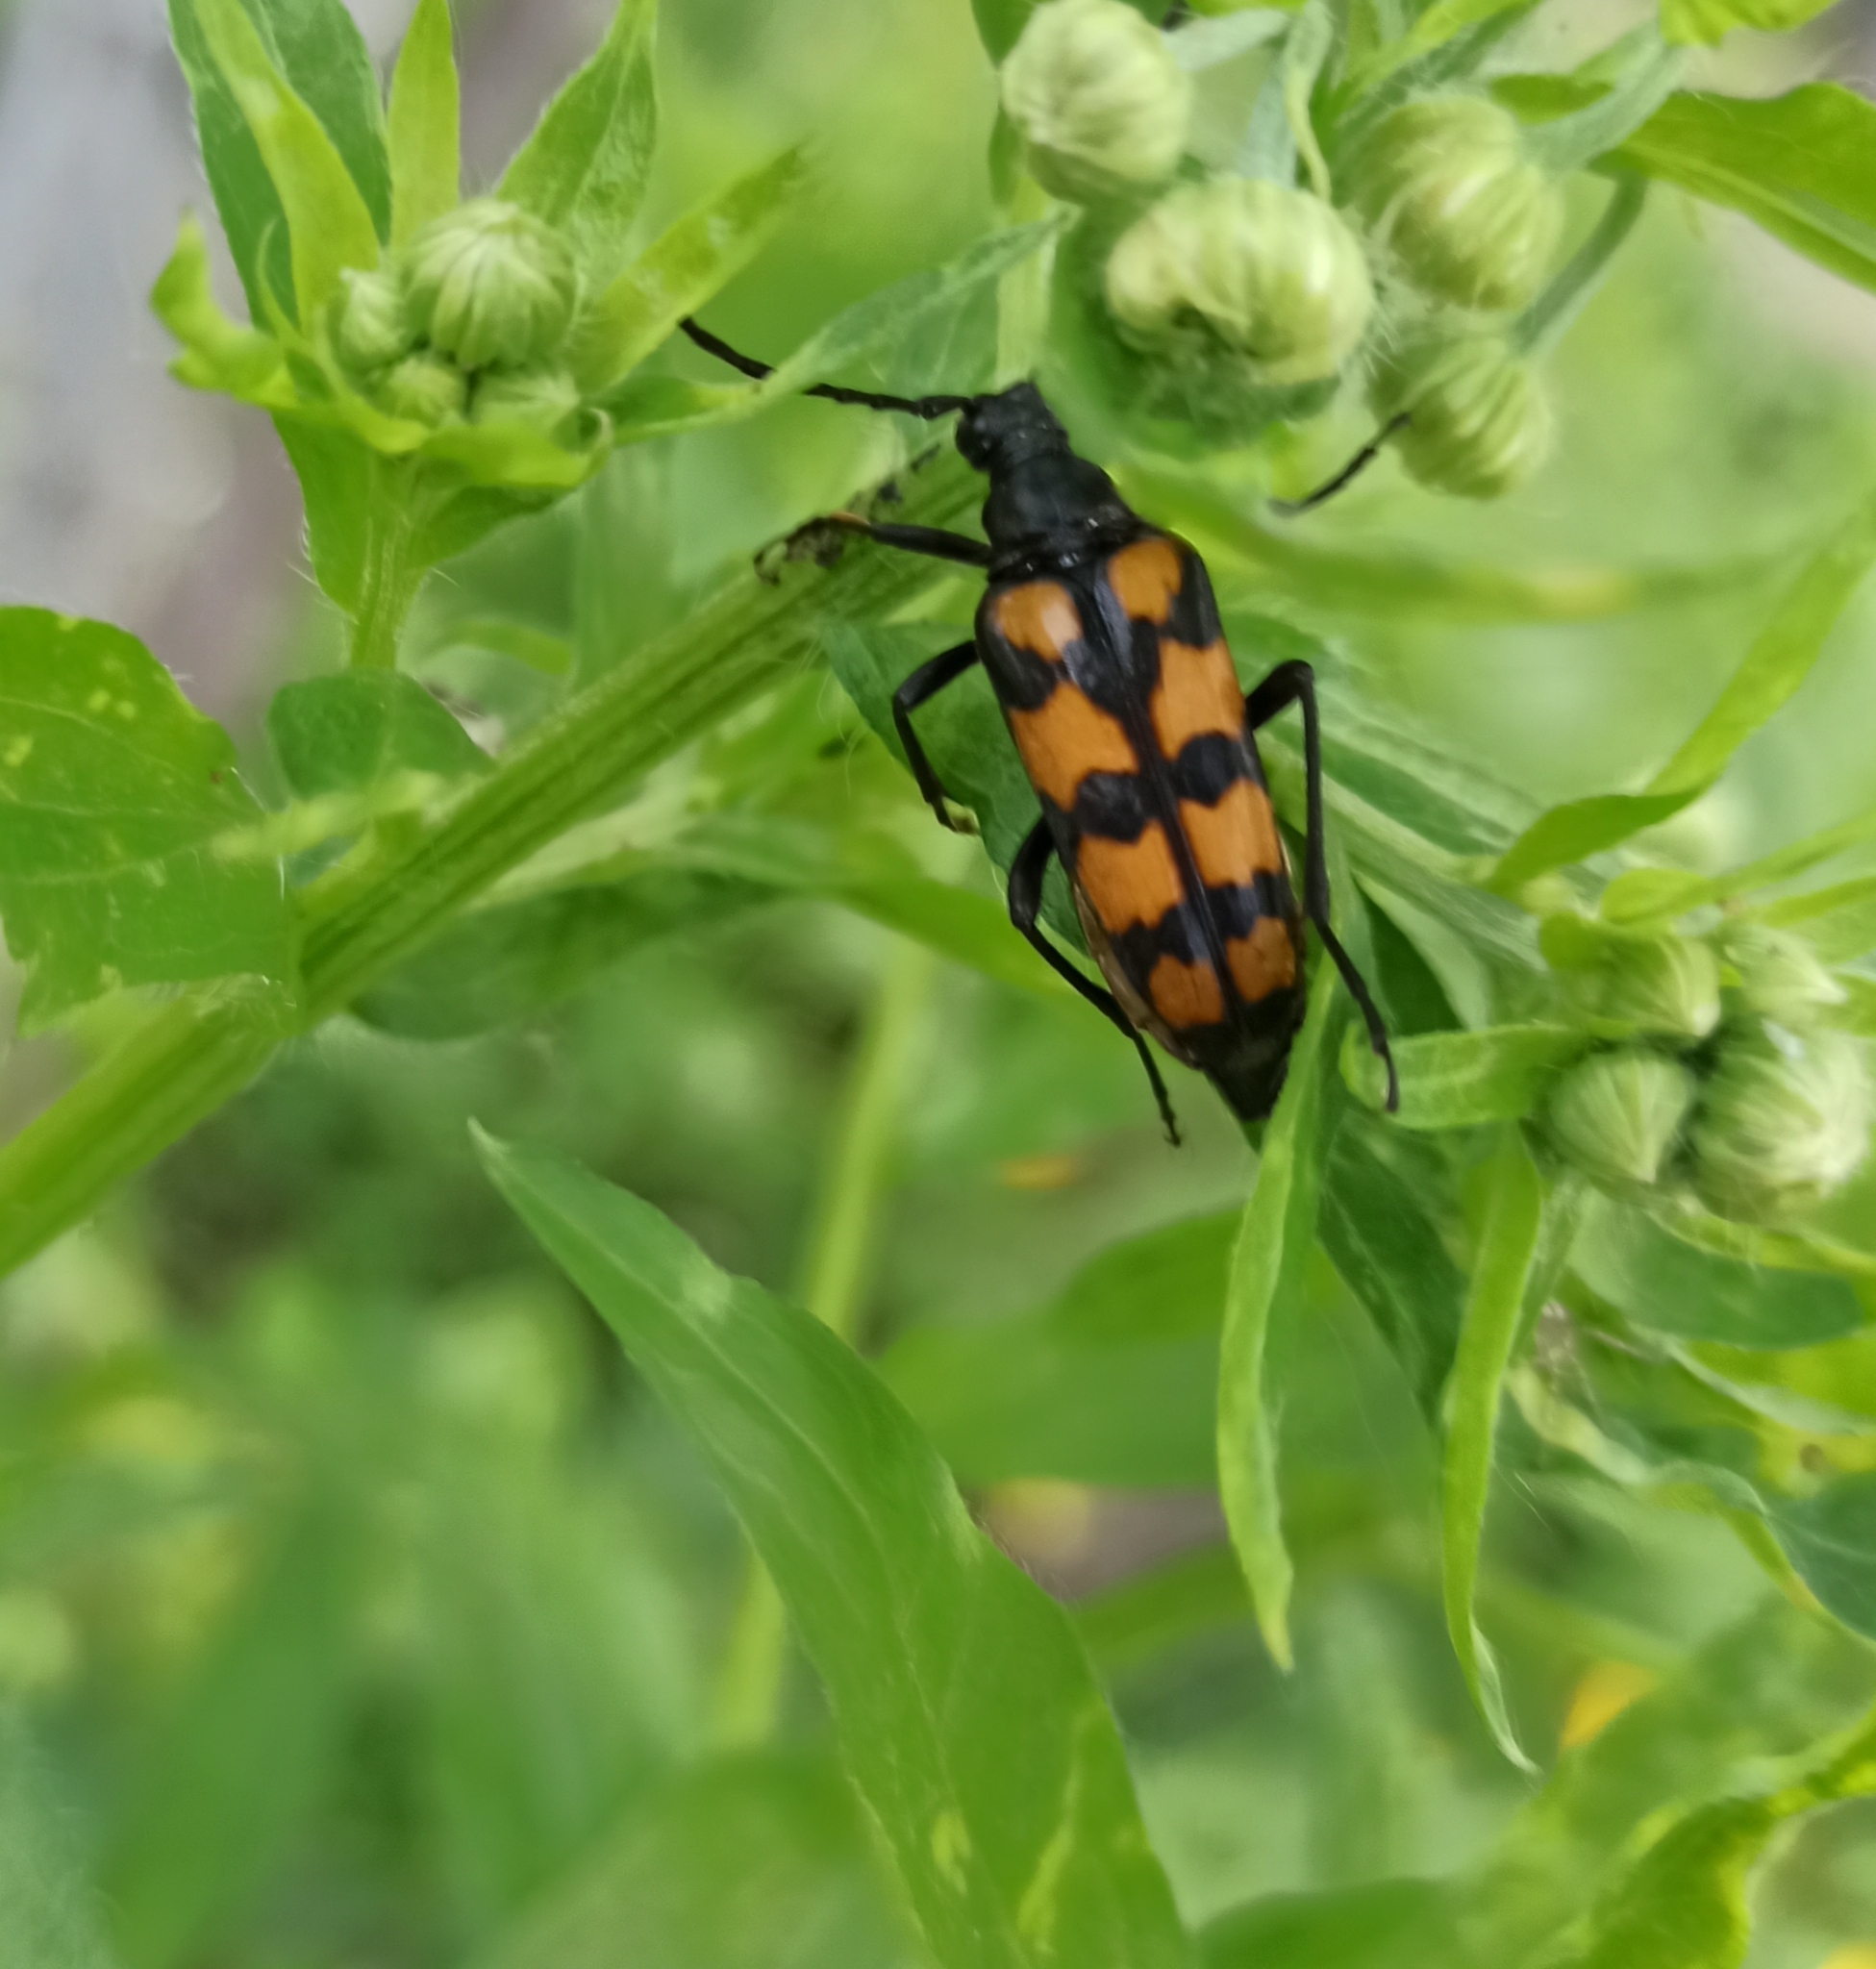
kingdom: Animalia
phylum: Arthropoda
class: Insecta
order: Coleoptera
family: Cerambycidae
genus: Leptura
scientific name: Leptura quadrifasciata
